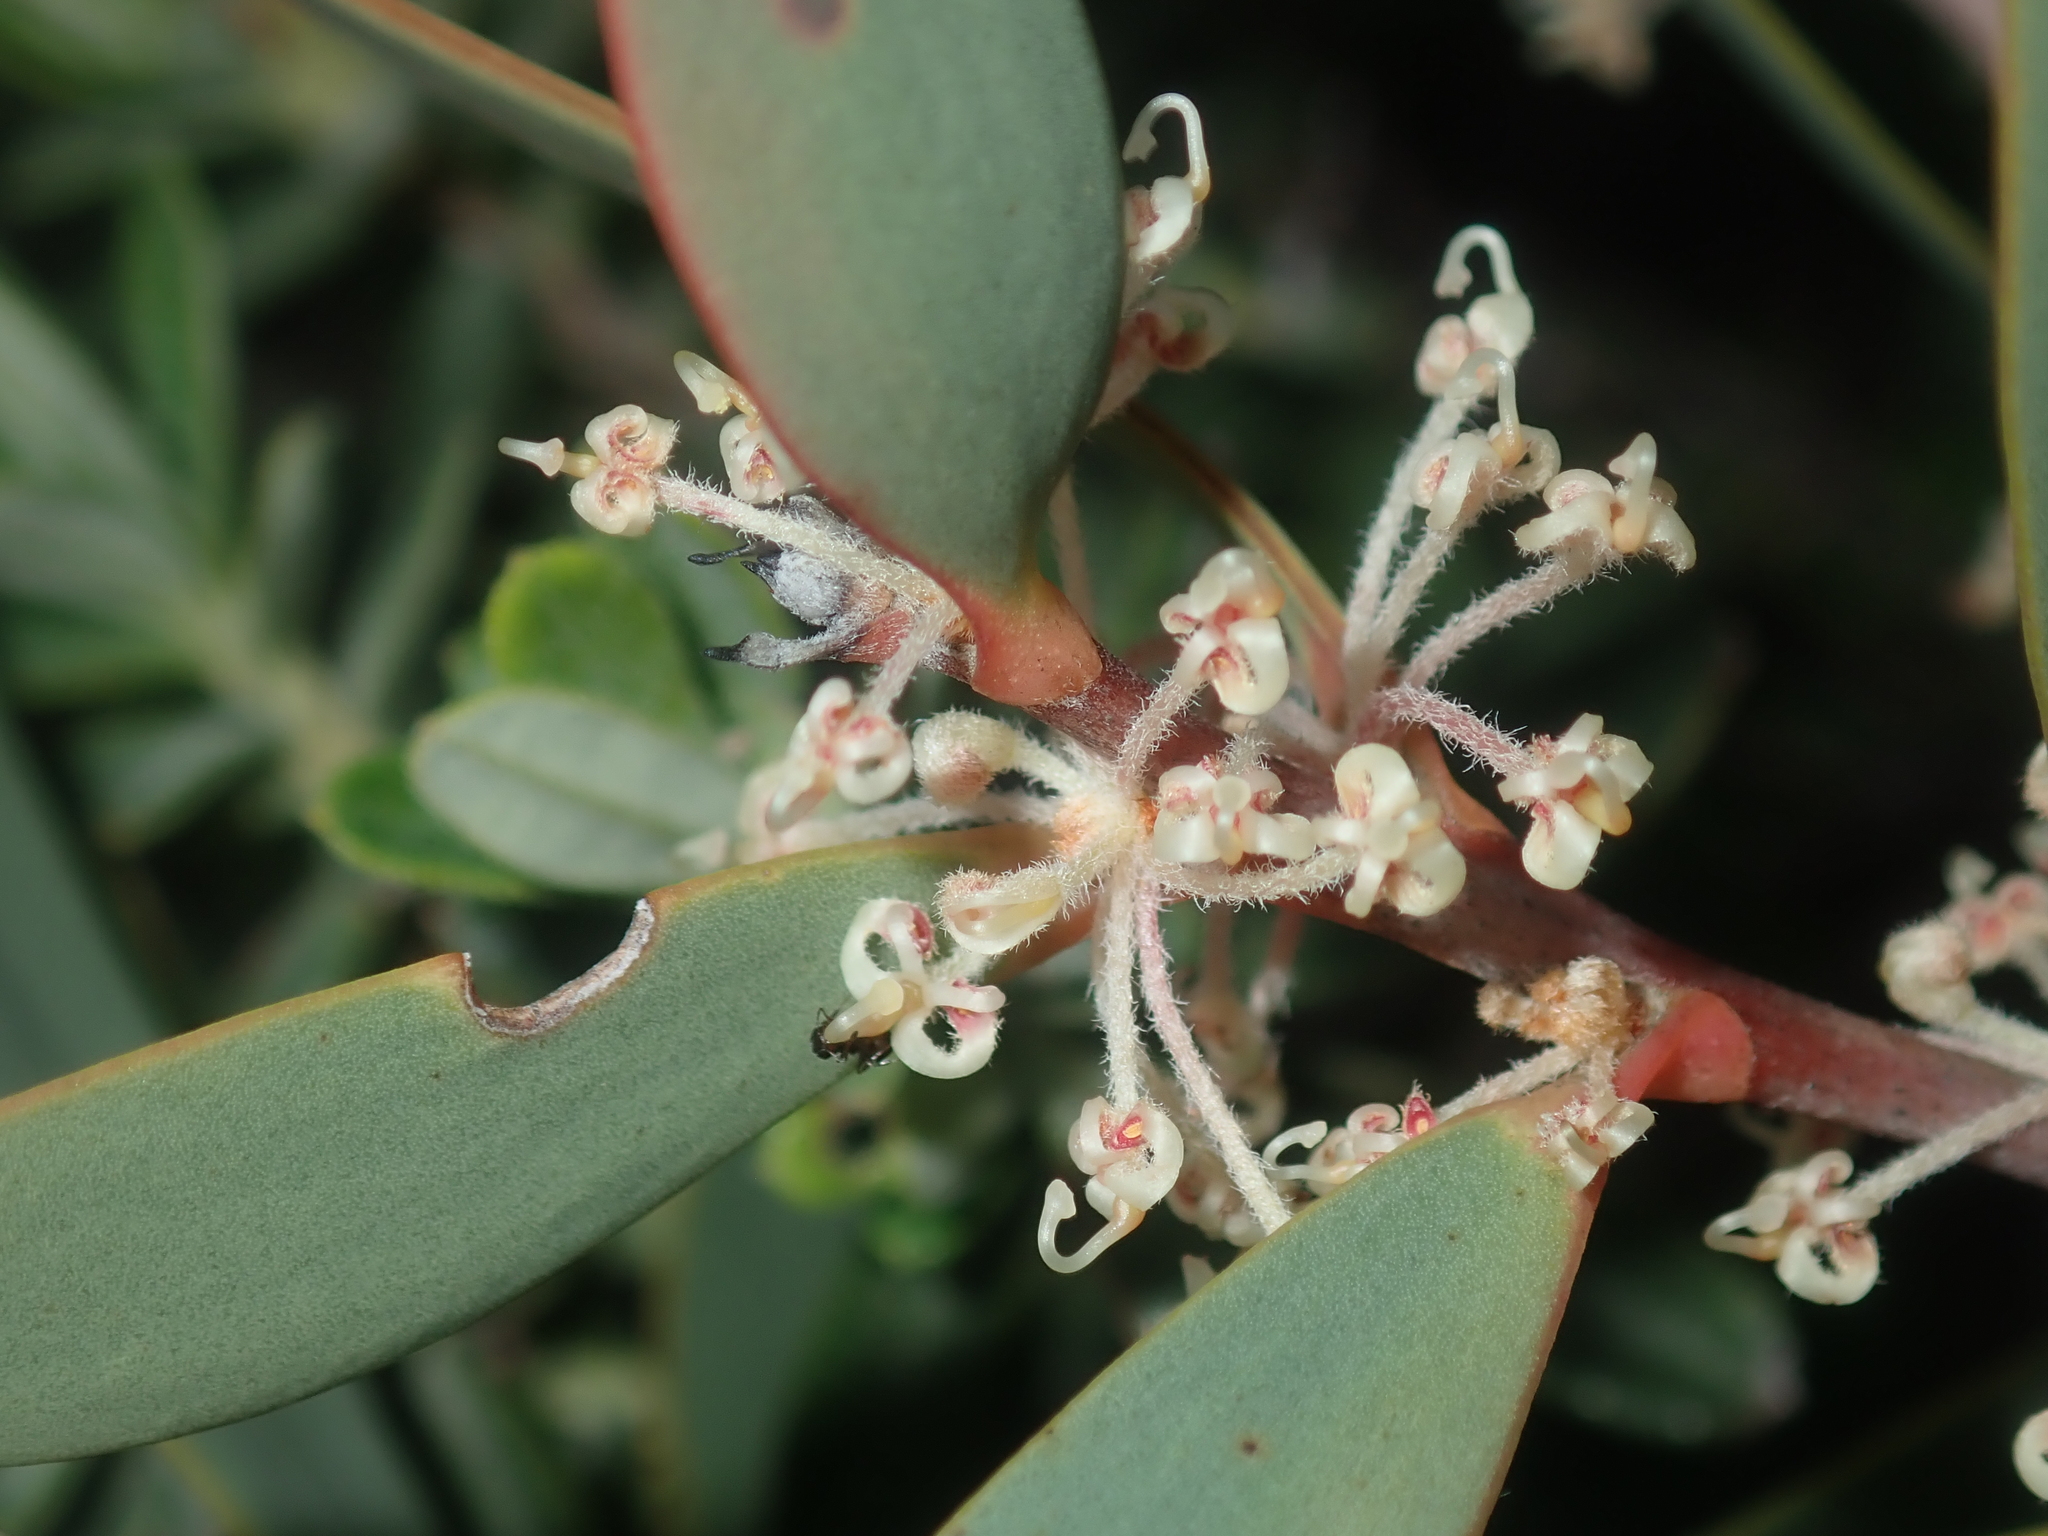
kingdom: Plantae
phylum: Tracheophyta
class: Magnoliopsida
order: Proteales
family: Proteaceae
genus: Hakea
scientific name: Hakea incrassata
